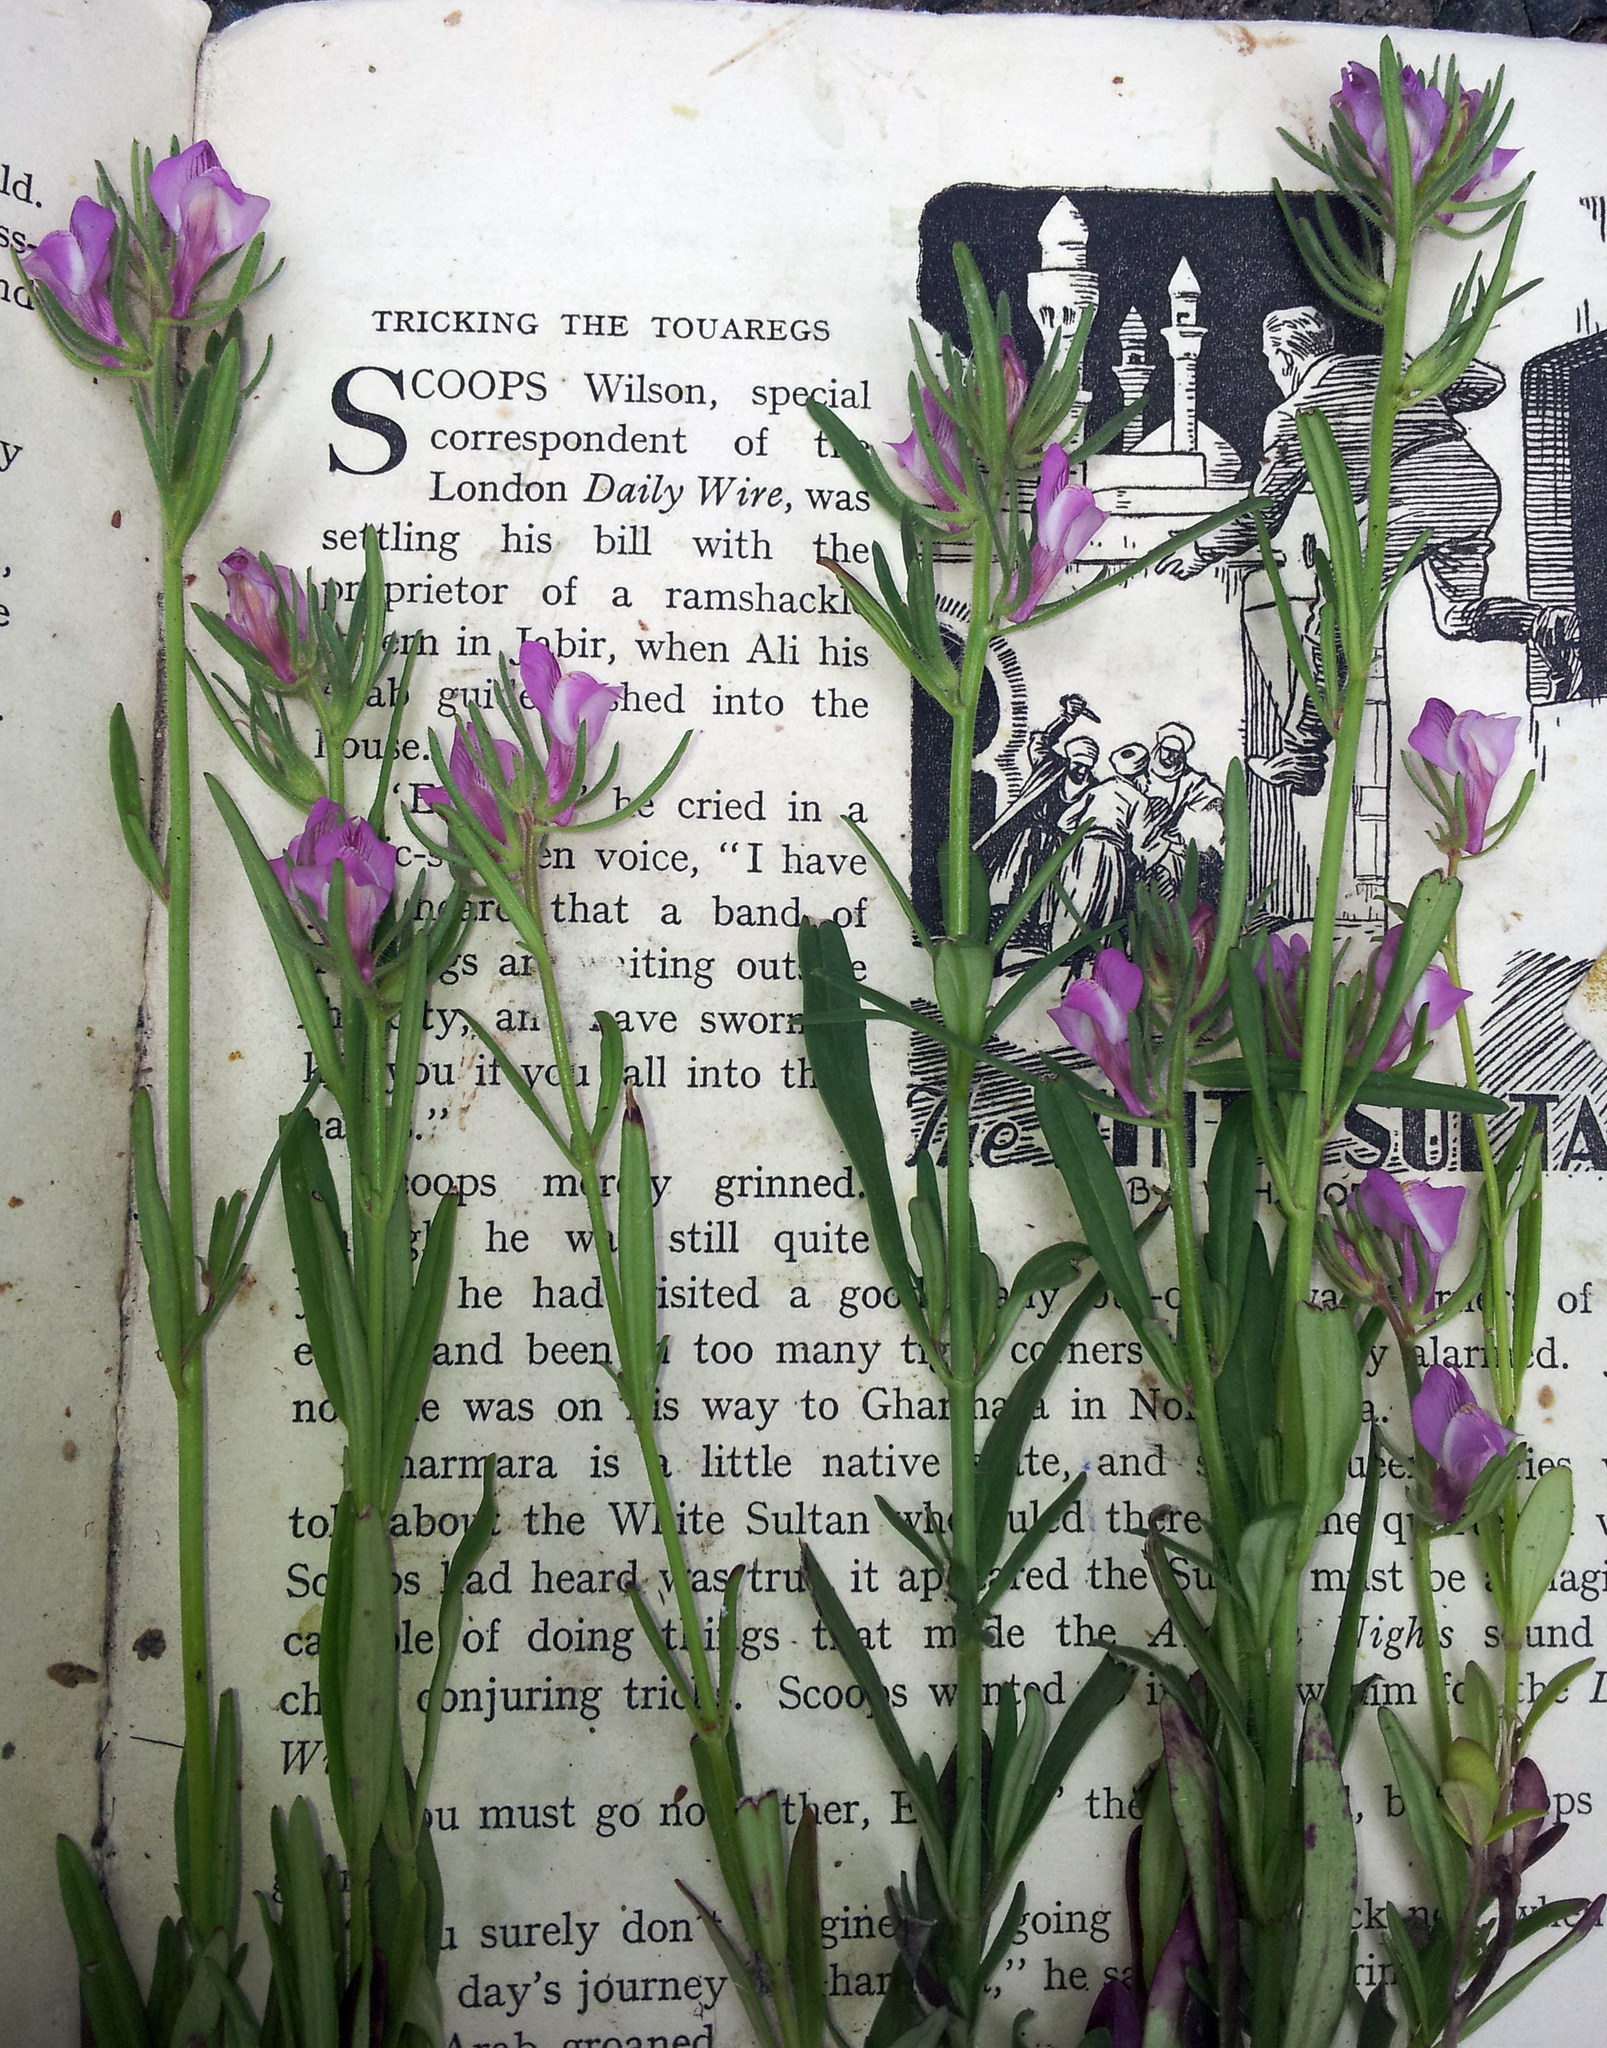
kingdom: Plantae
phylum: Tracheophyta
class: Magnoliopsida
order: Lamiales
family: Plantaginaceae
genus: Misopates
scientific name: Misopates orontium
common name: Weasel's-snout
